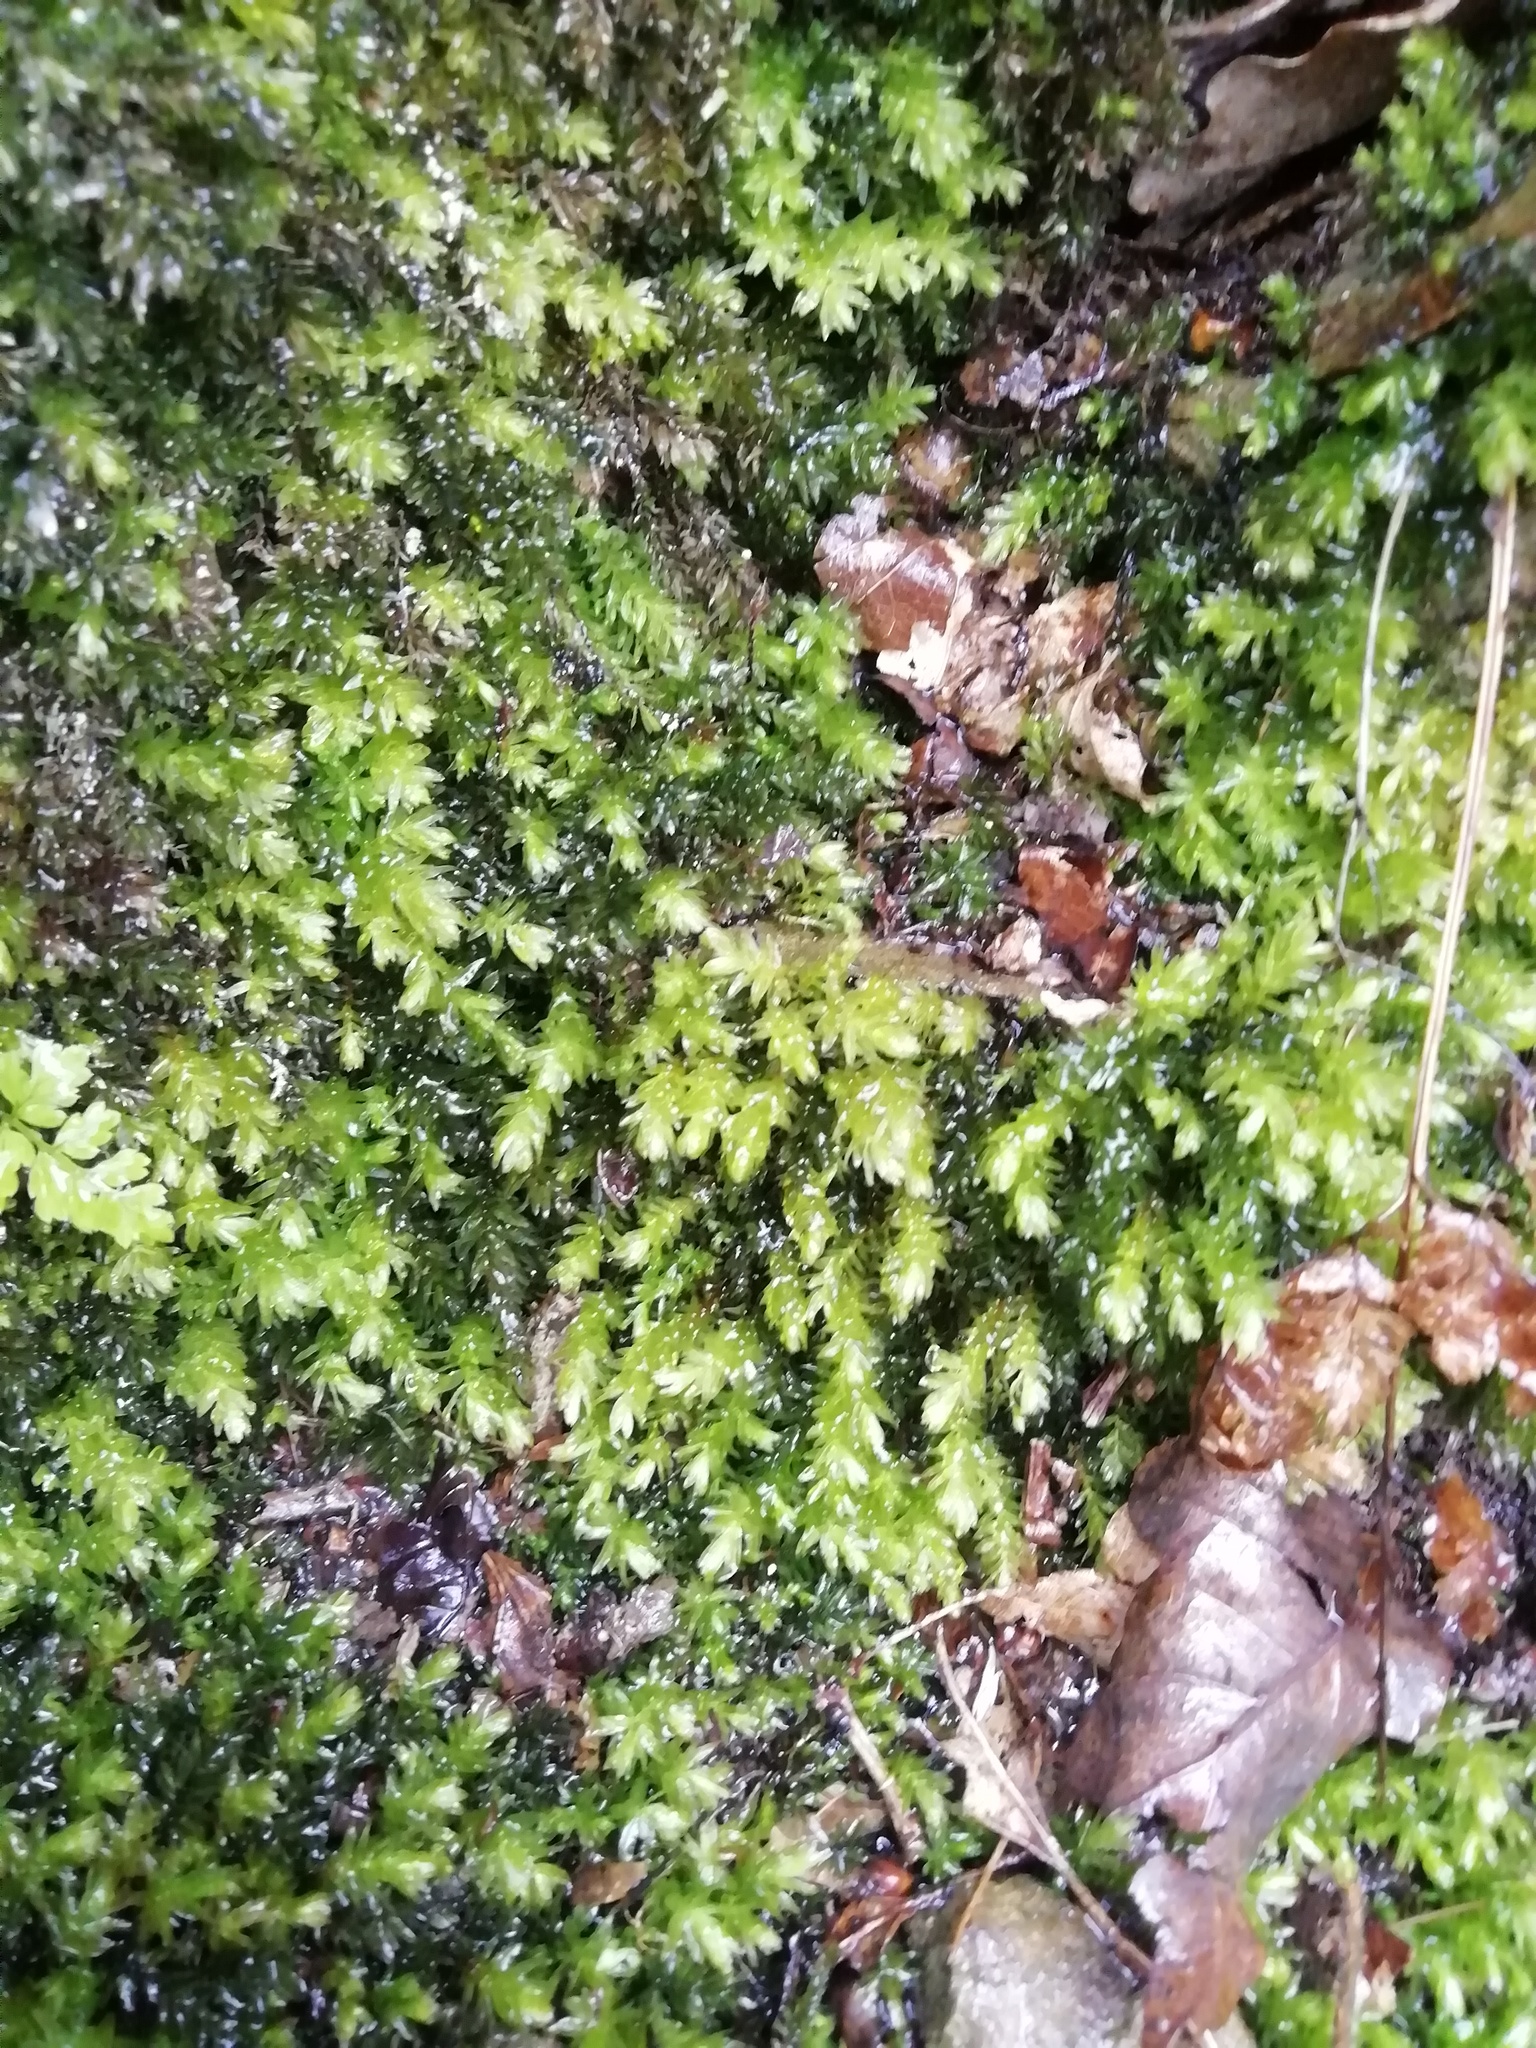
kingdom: Plantae
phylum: Bryophyta
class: Bryopsida
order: Bryales
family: Mniaceae
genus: Mnium
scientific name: Mnium hornum
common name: Swan's-neck leafy moss
